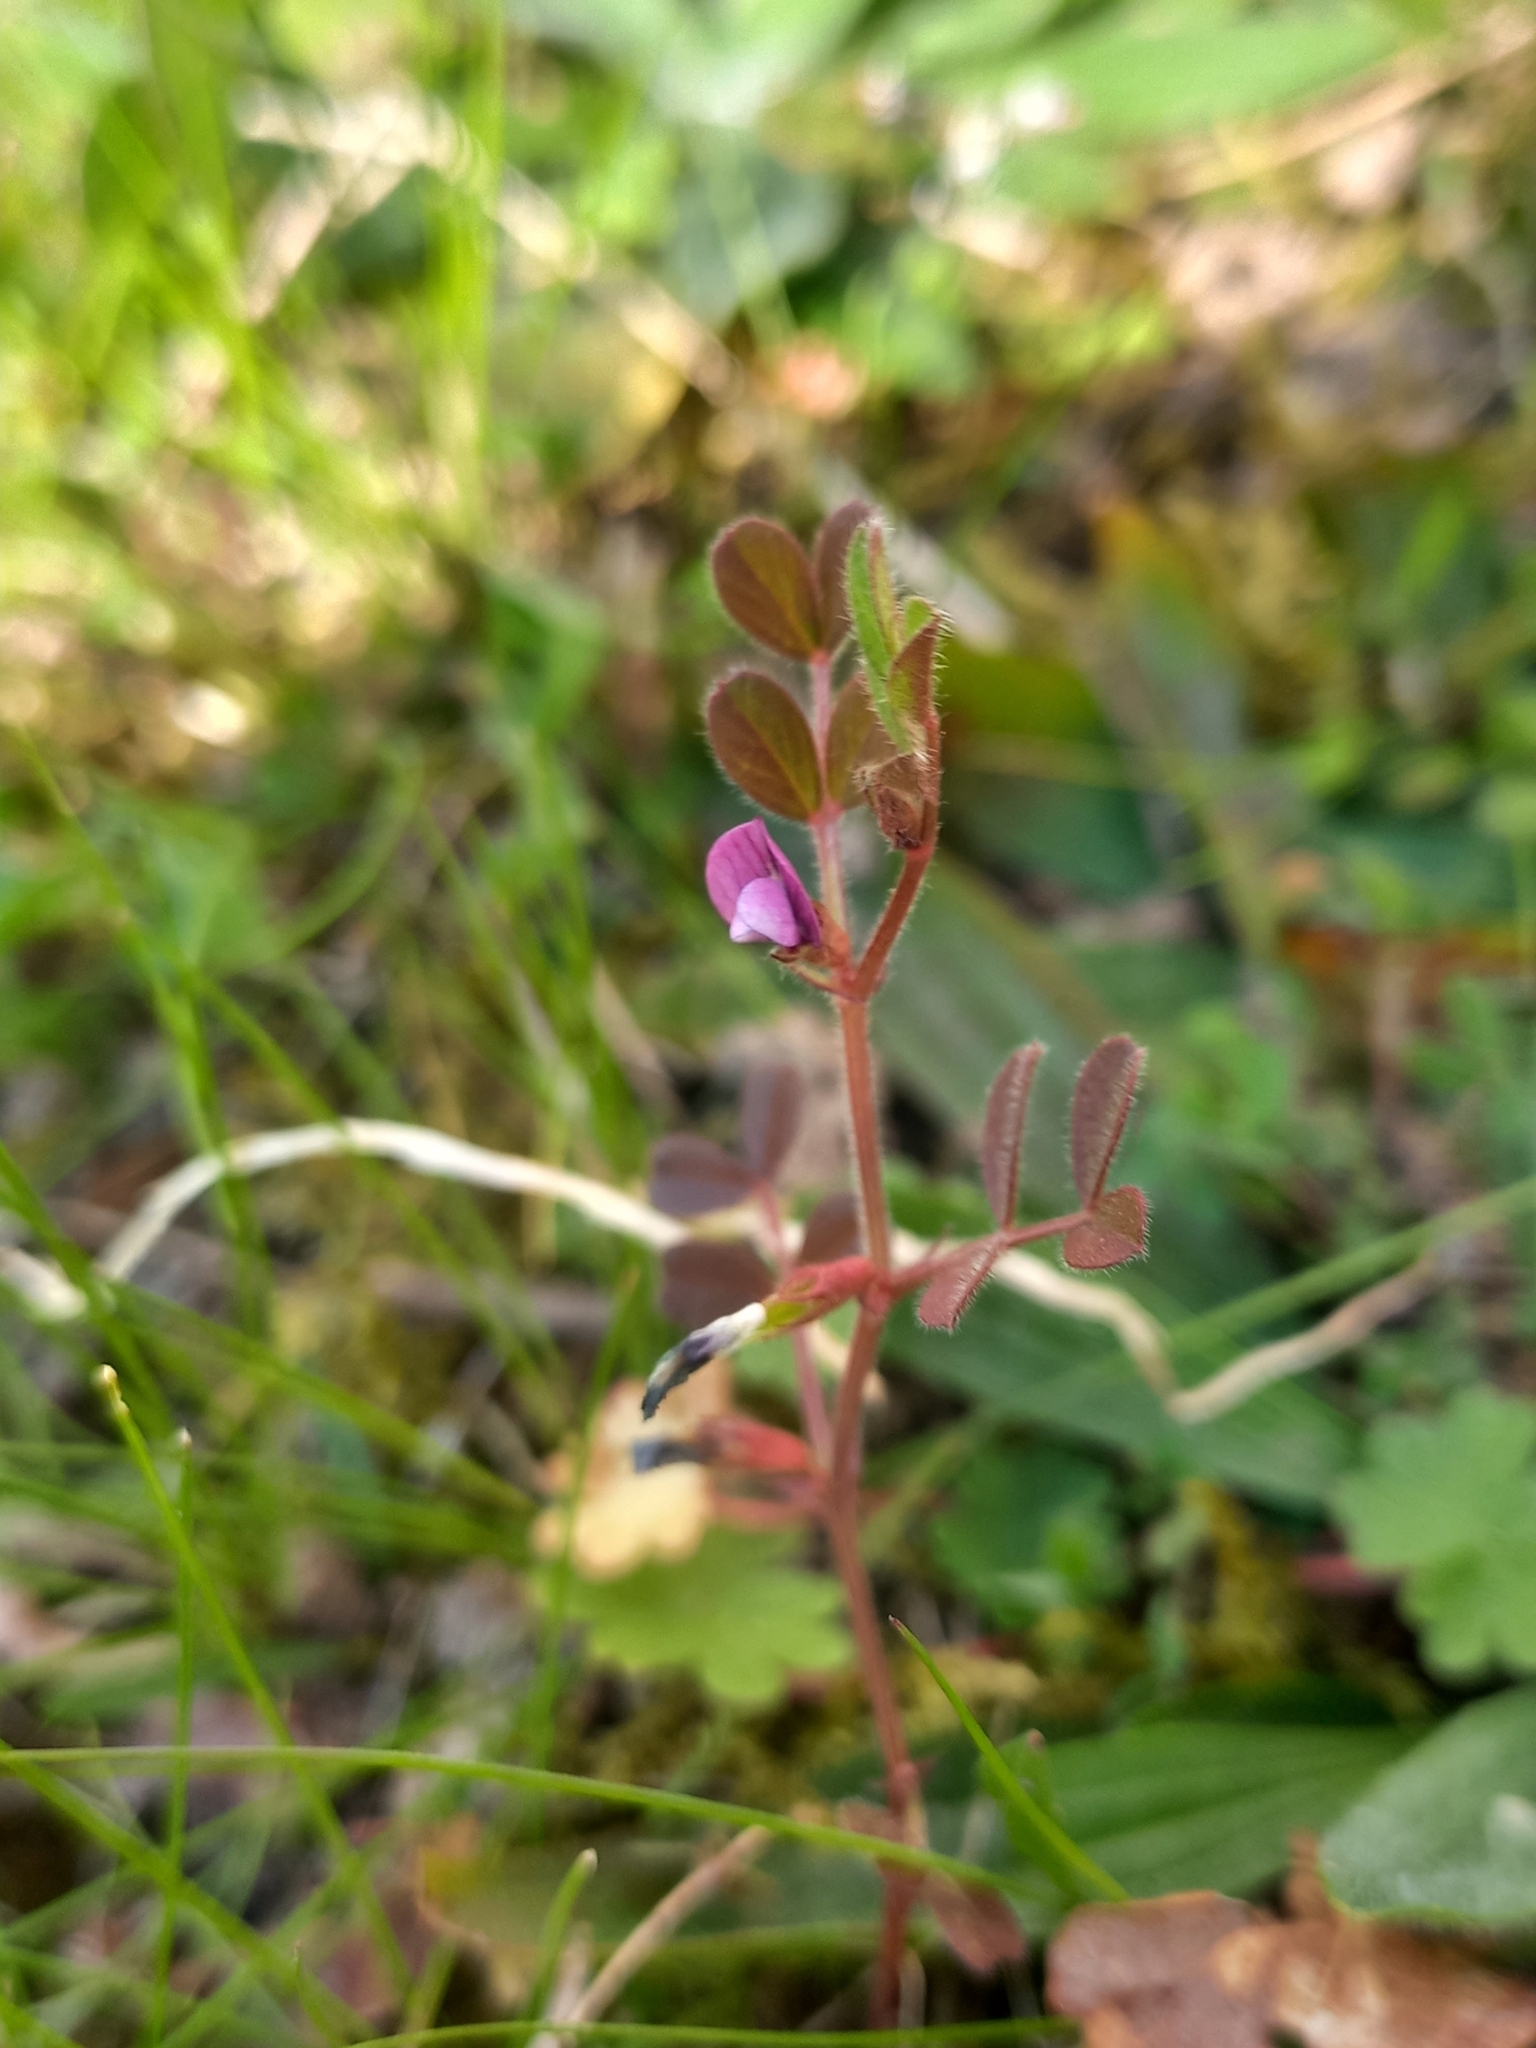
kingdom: Plantae
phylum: Tracheophyta
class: Magnoliopsida
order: Fabales
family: Fabaceae
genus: Vicia
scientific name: Vicia lathyroides
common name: Spring vetch
